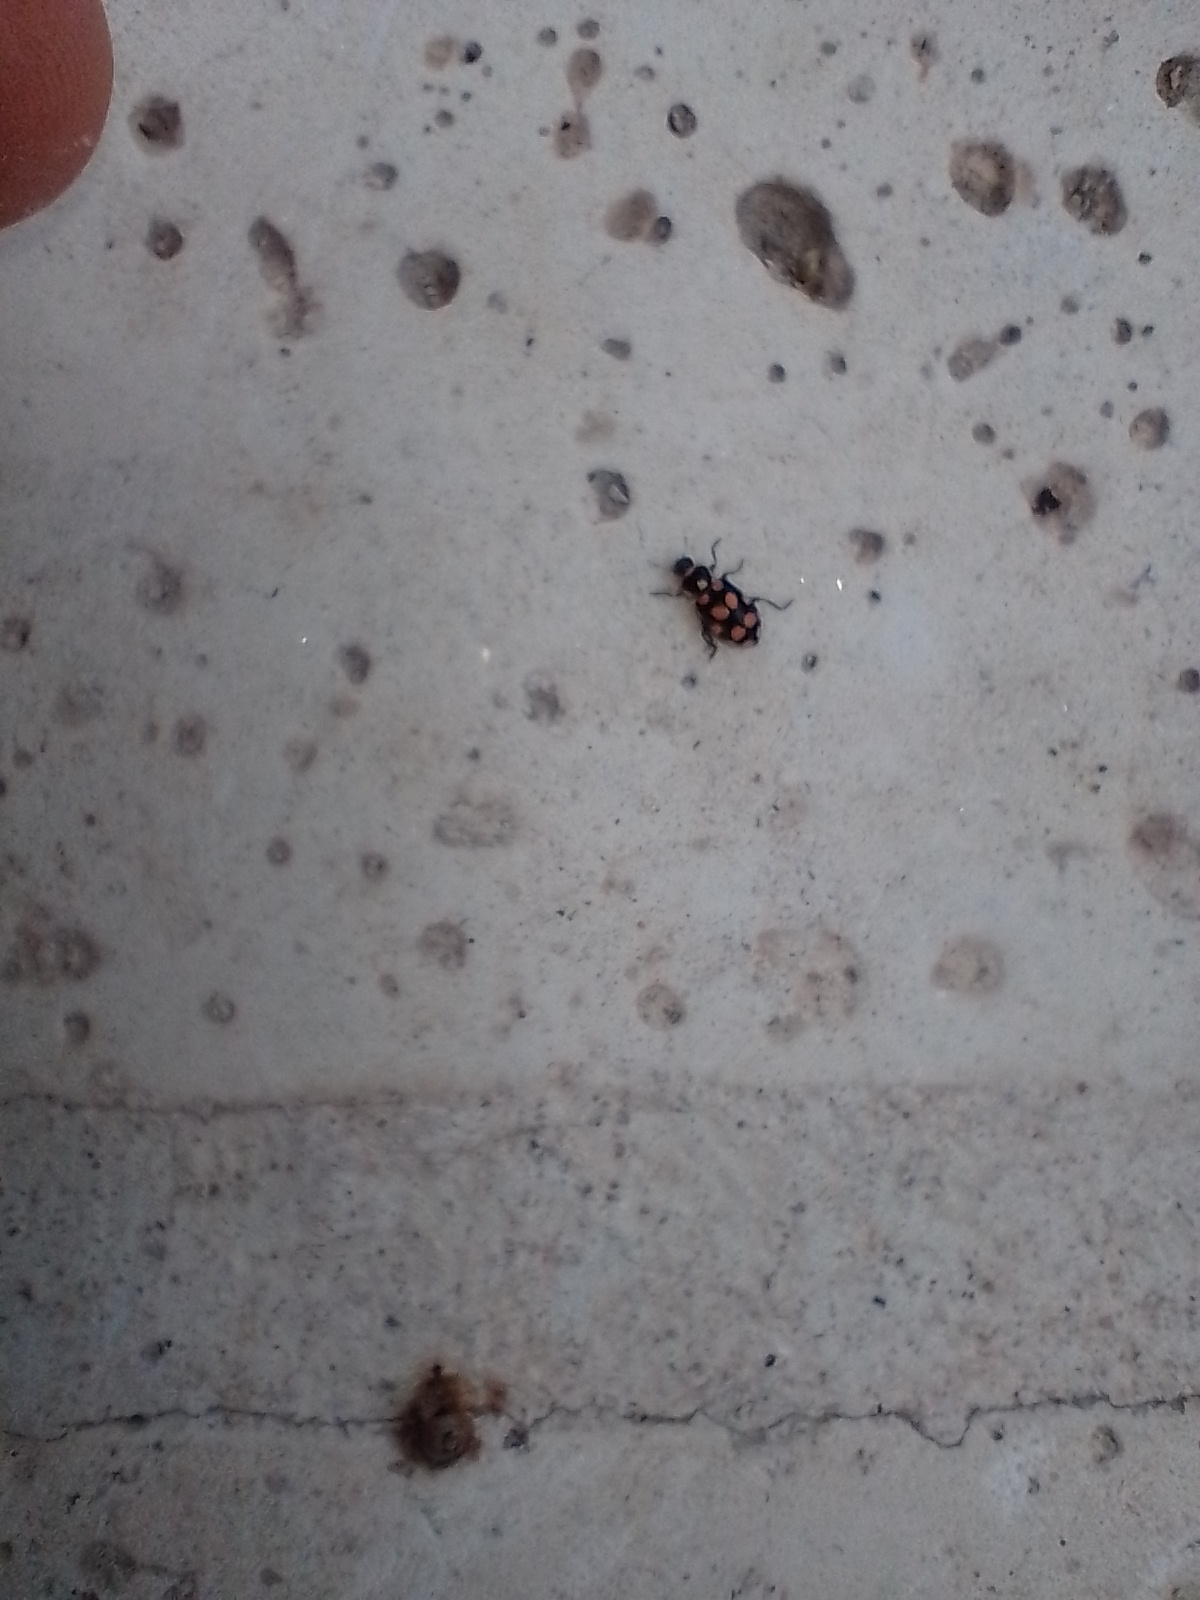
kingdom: Animalia
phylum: Arthropoda
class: Insecta
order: Coleoptera
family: Coccinellidae
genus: Eriopis
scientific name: Eriopis
